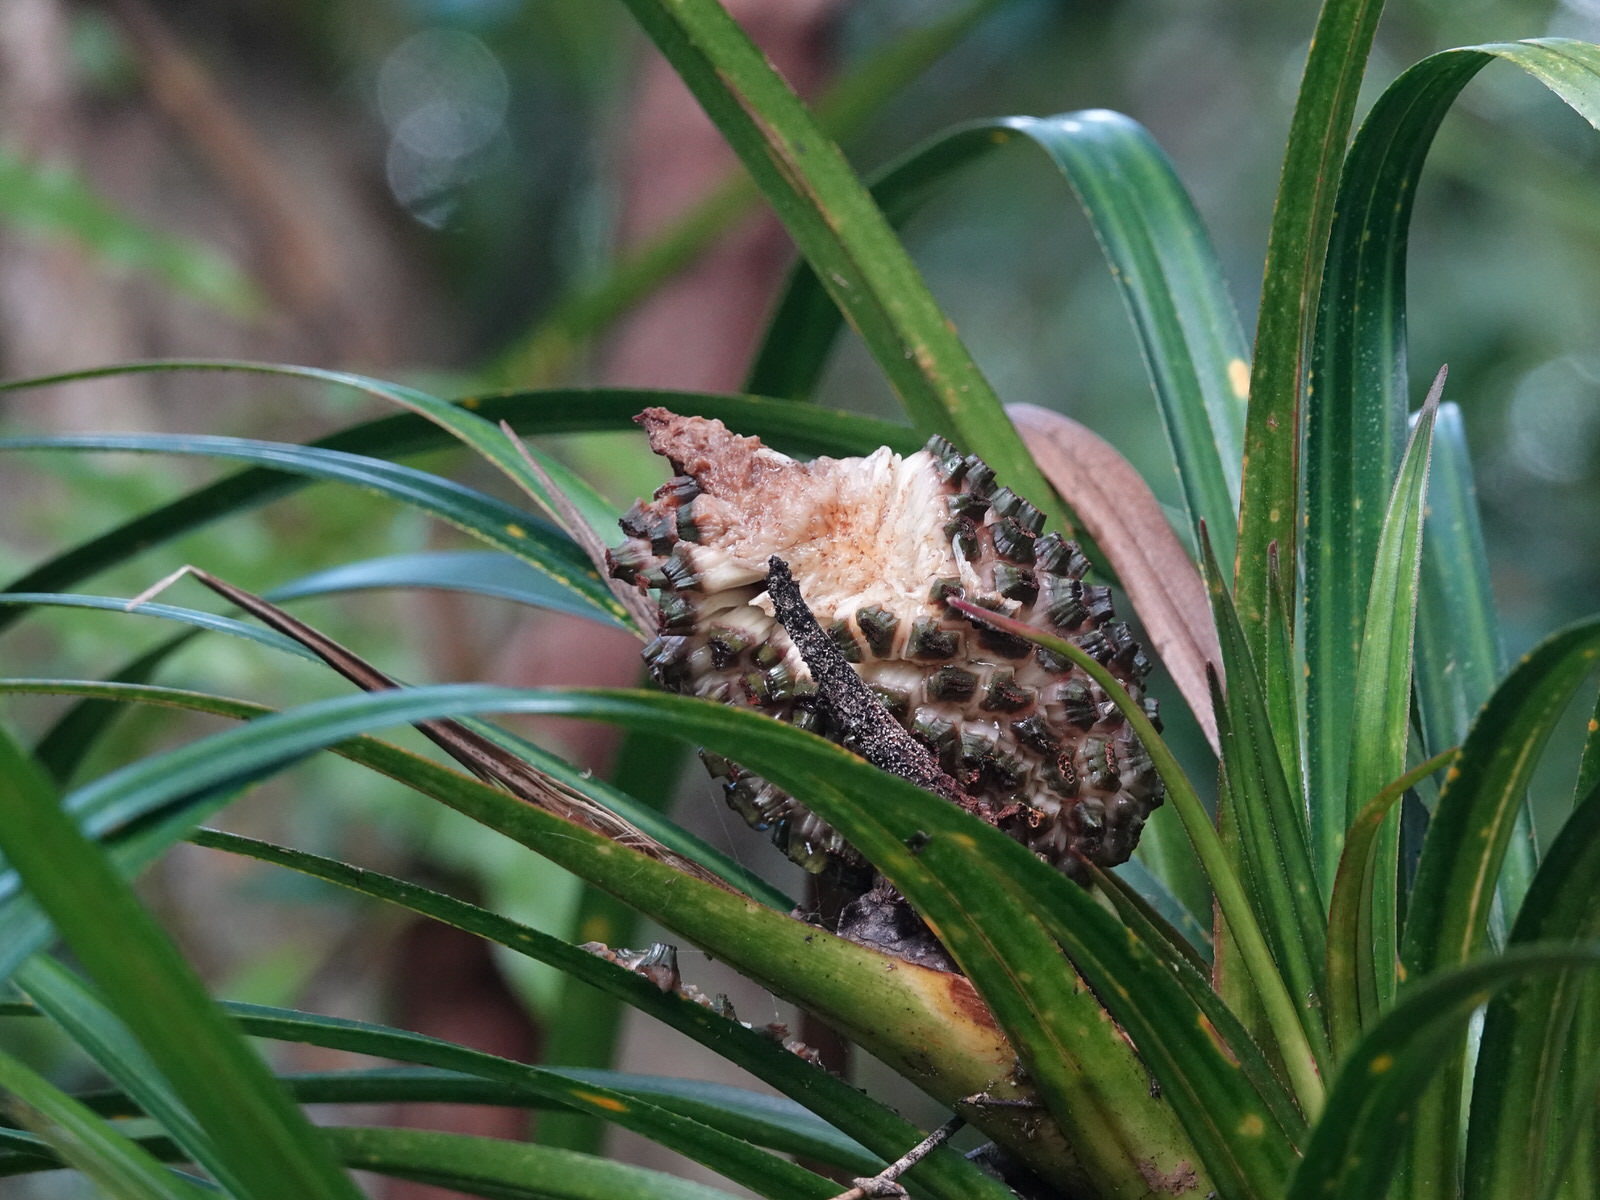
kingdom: Plantae
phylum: Tracheophyta
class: Liliopsida
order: Pandanales
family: Pandanaceae
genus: Freycinetia
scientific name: Freycinetia banksii
